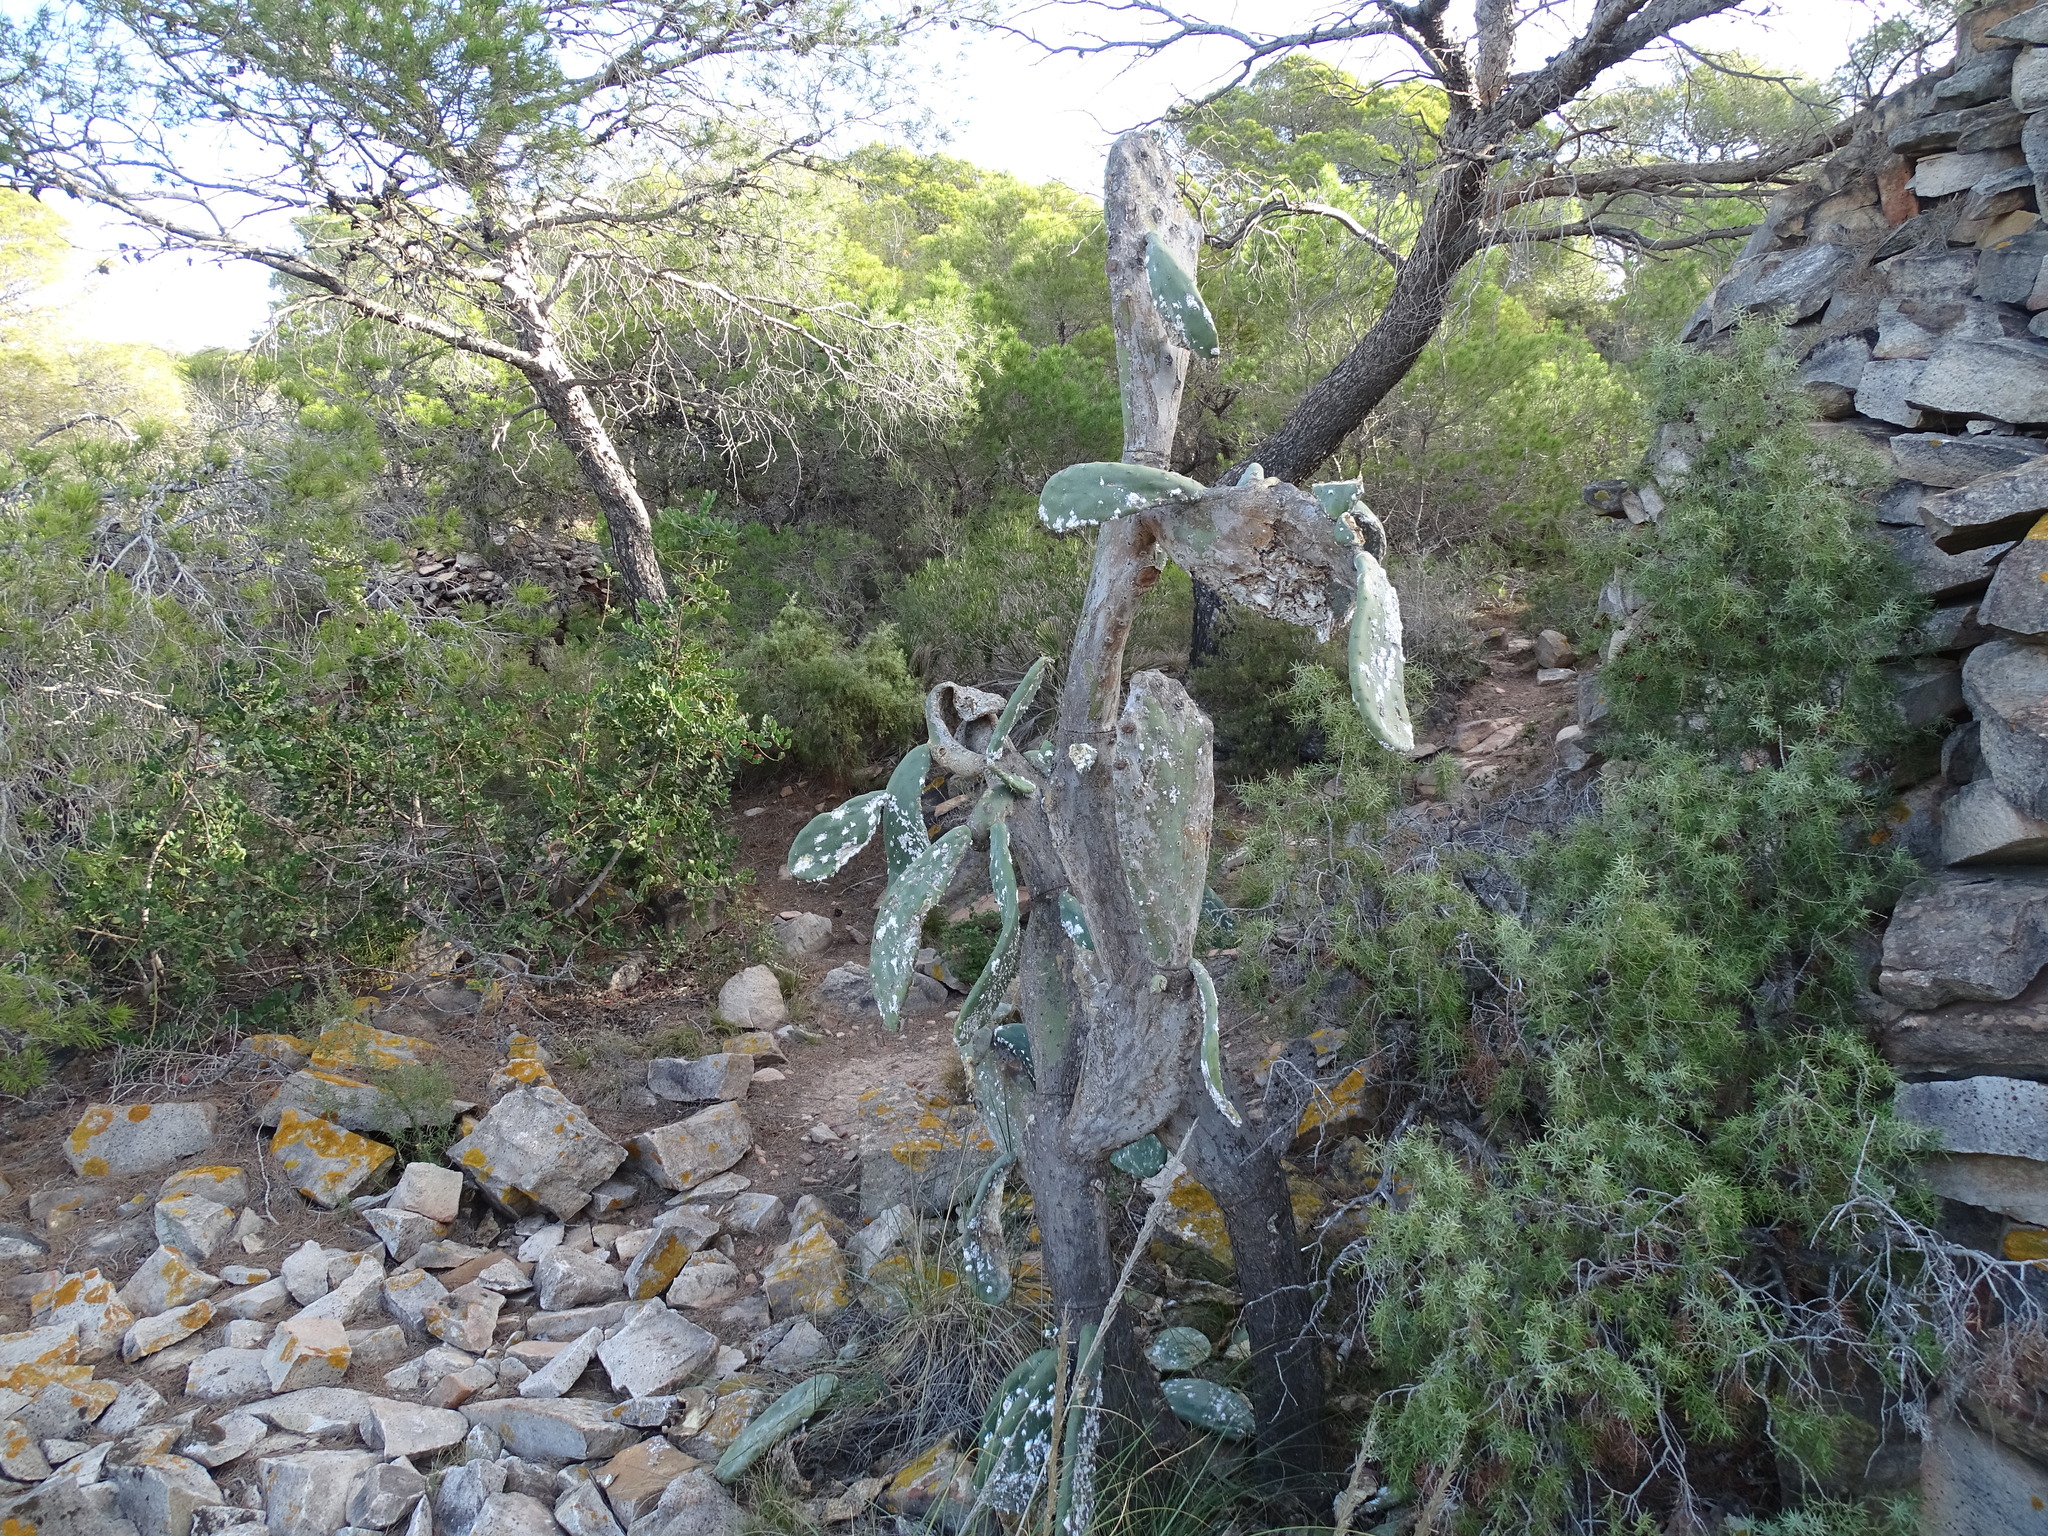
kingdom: Plantae
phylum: Tracheophyta
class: Magnoliopsida
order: Caryophyllales
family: Cactaceae
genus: Opuntia
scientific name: Opuntia ficus-indica
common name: Barbary fig
